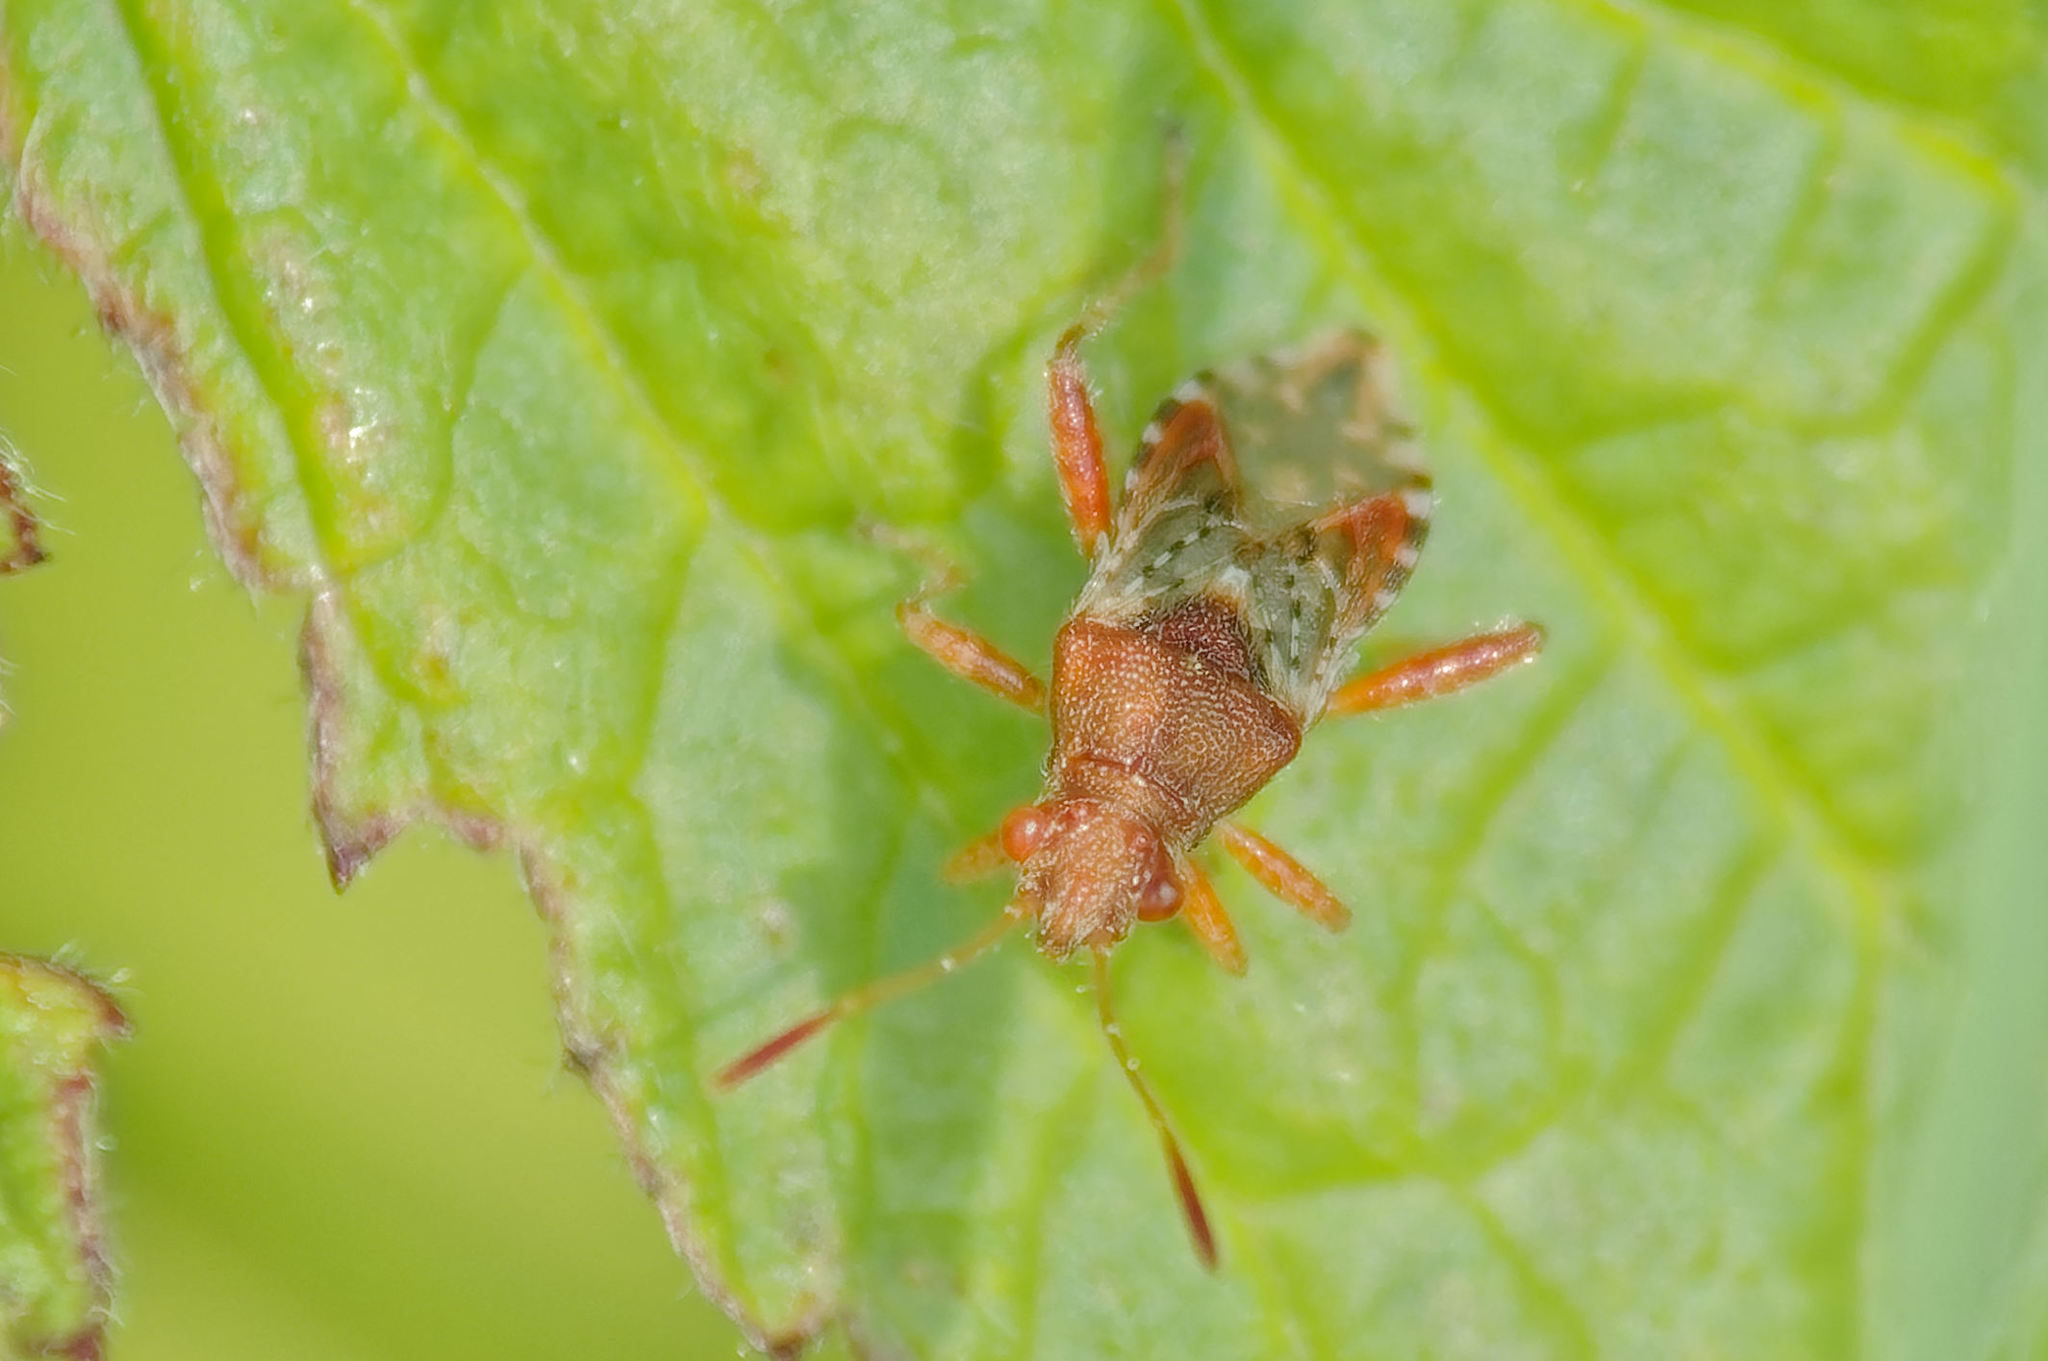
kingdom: Animalia
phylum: Arthropoda
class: Insecta
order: Hemiptera
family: Rhopalidae
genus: Rhopalus
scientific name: Rhopalus subrufus
